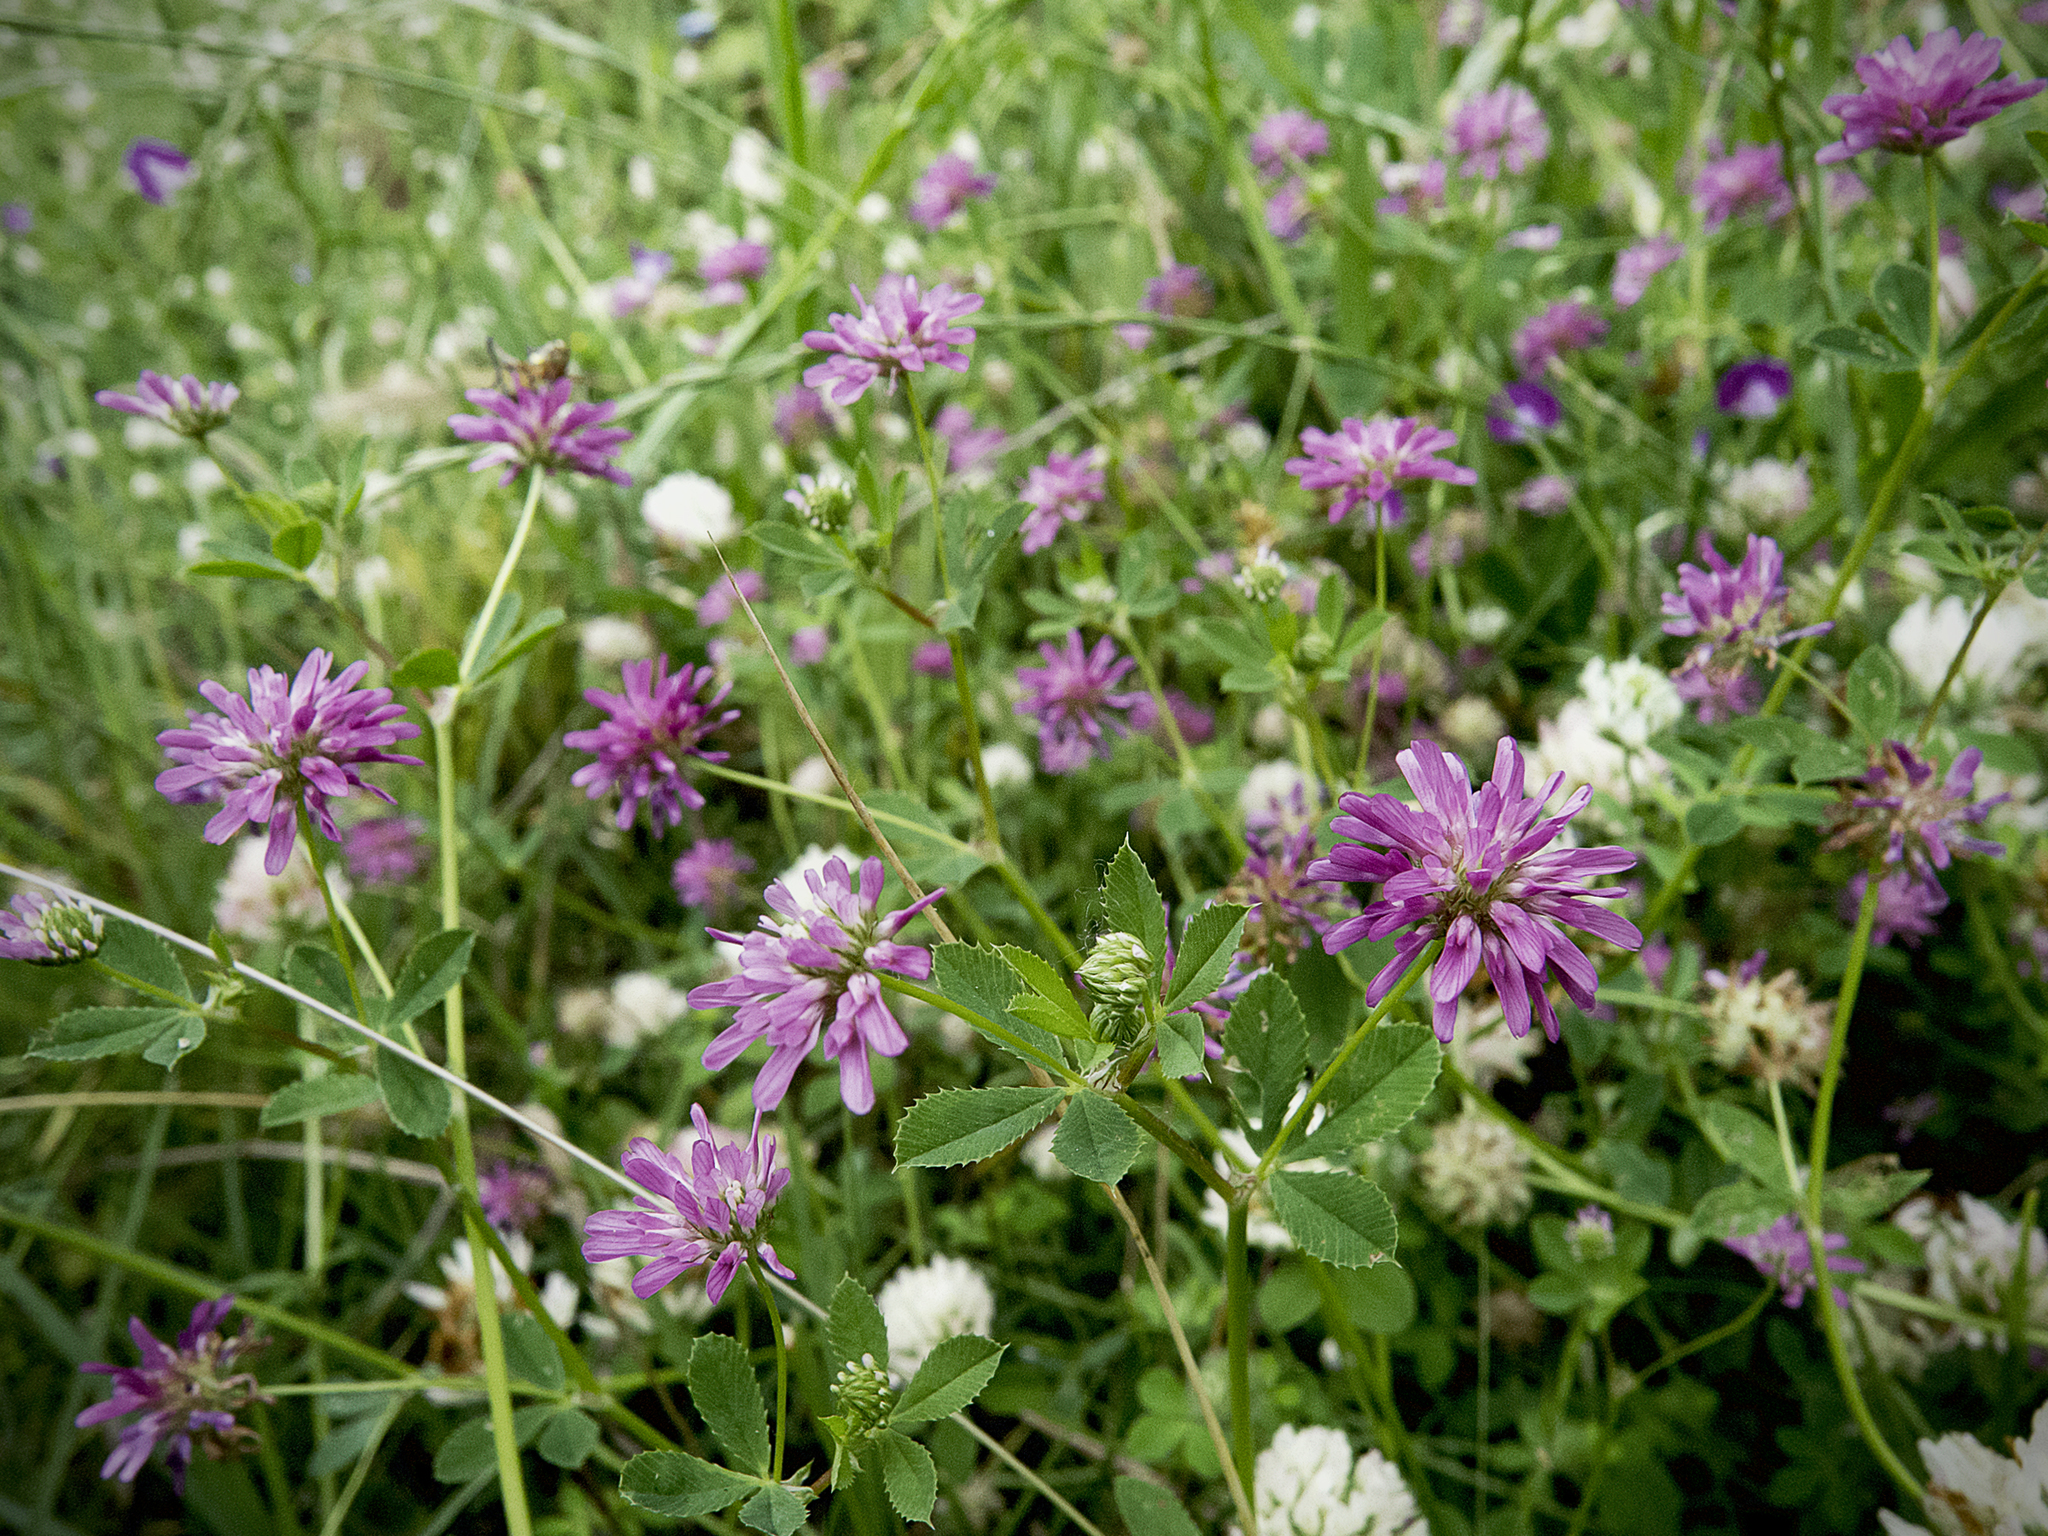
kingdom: Plantae
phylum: Tracheophyta
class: Magnoliopsida
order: Fabales
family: Fabaceae
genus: Trifolium
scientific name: Trifolium resupinatum
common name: Reversed clover
